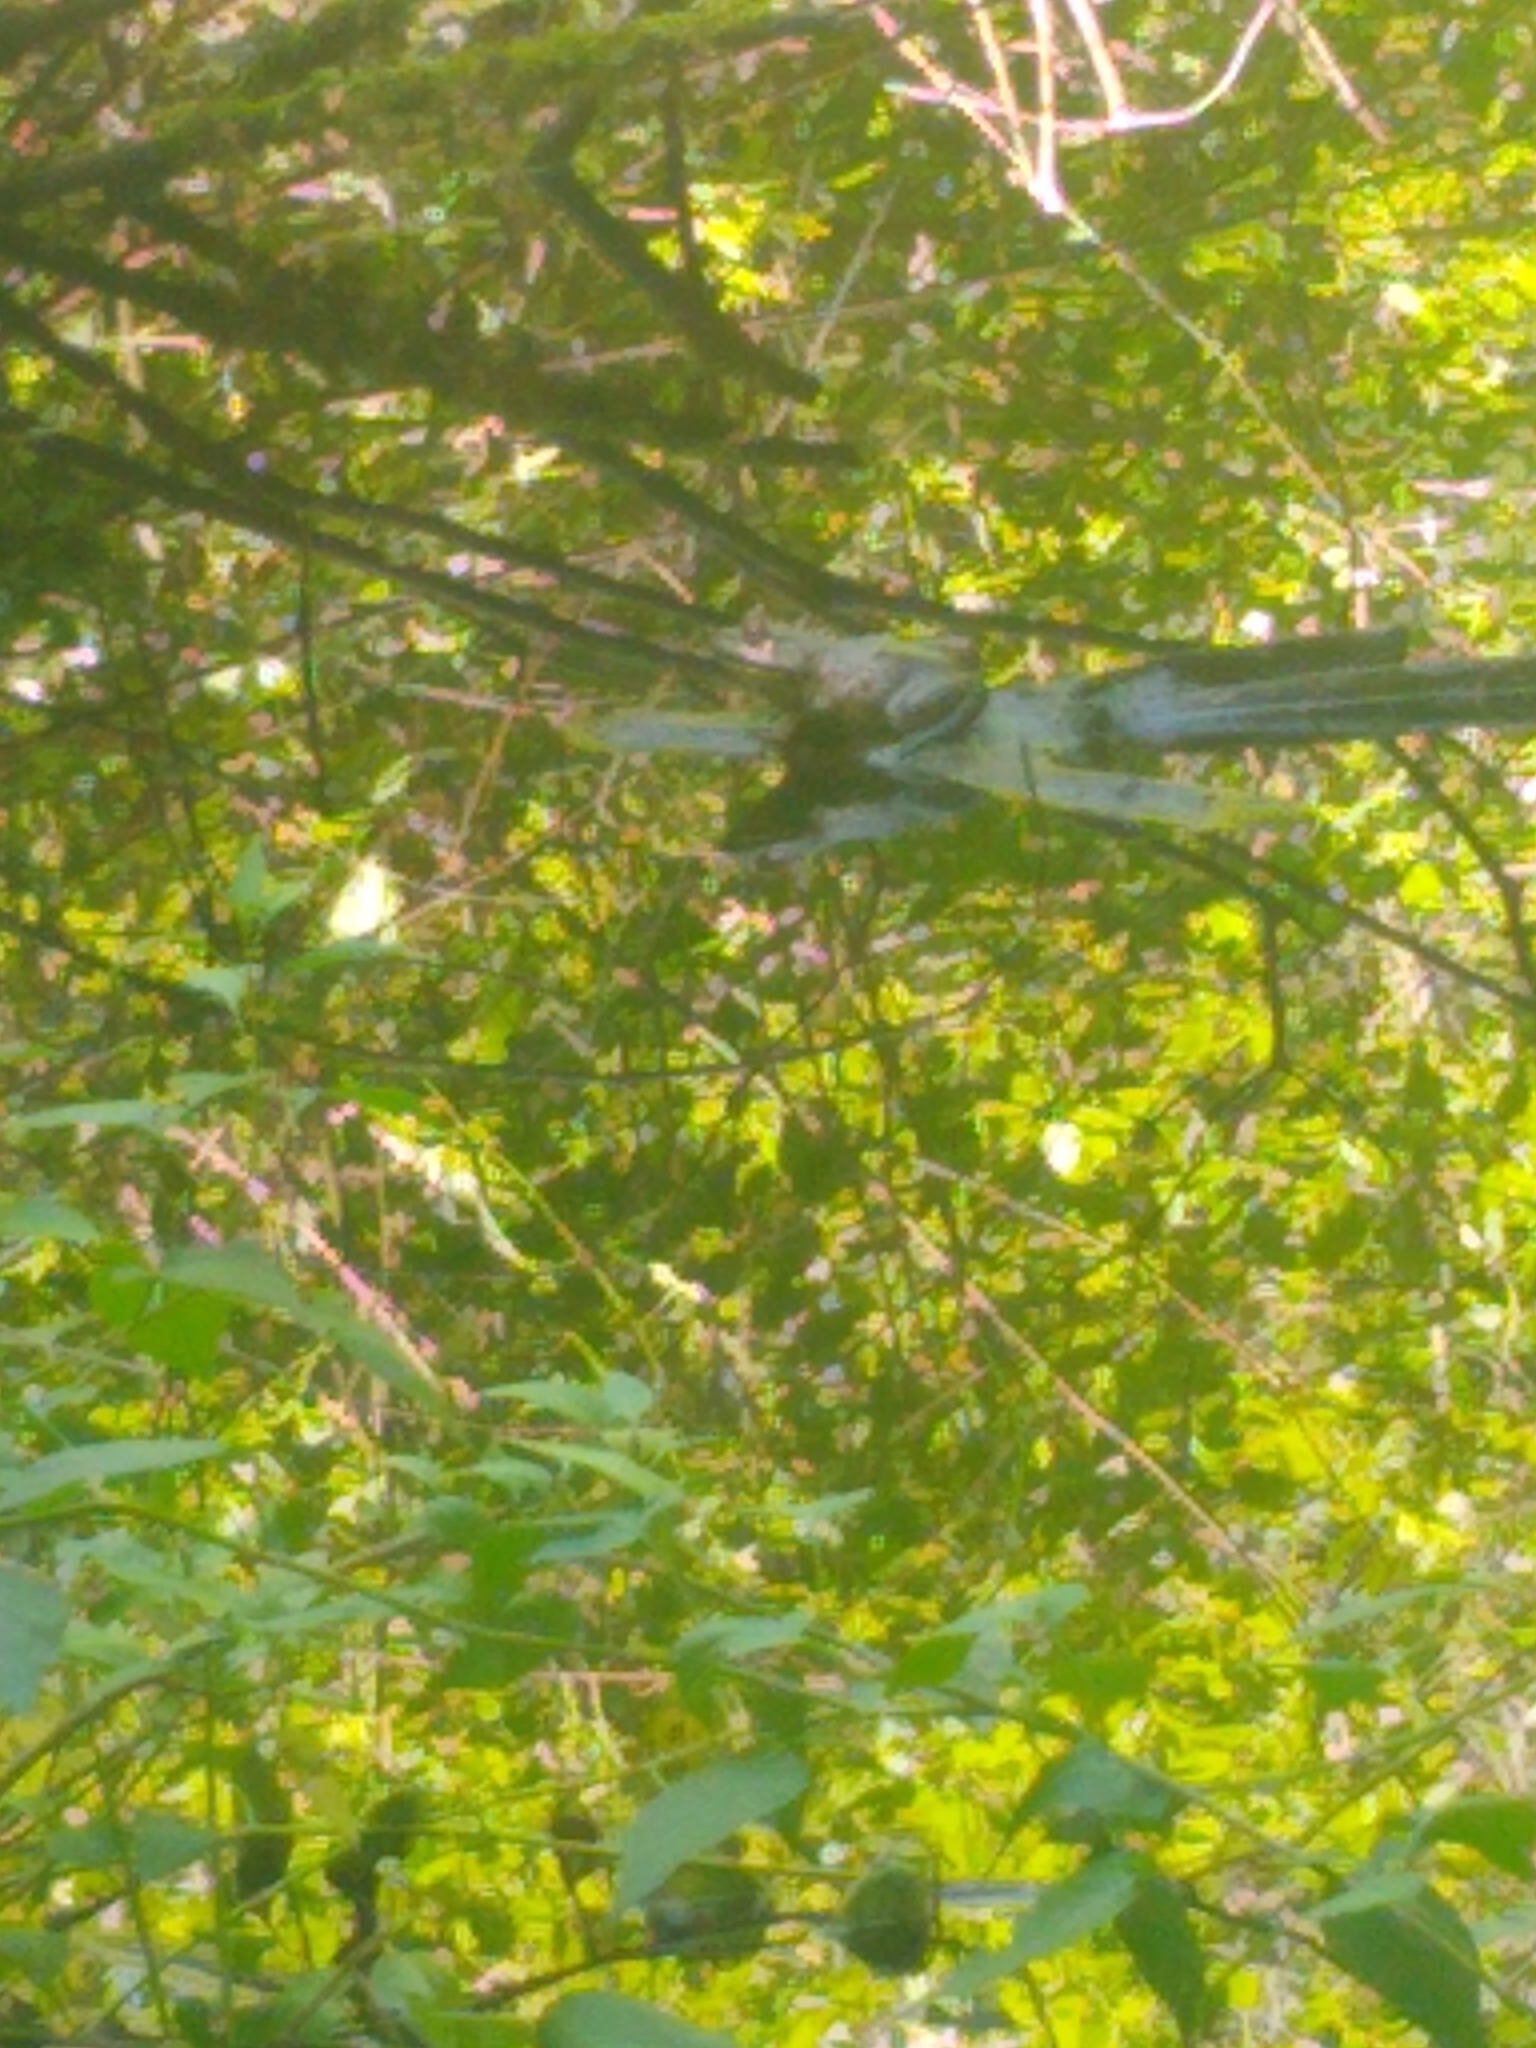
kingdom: Animalia
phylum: Chordata
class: Amphibia
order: Anura
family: Ranidae
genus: Lithobates
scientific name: Lithobates catesbeianus
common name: American bullfrog
